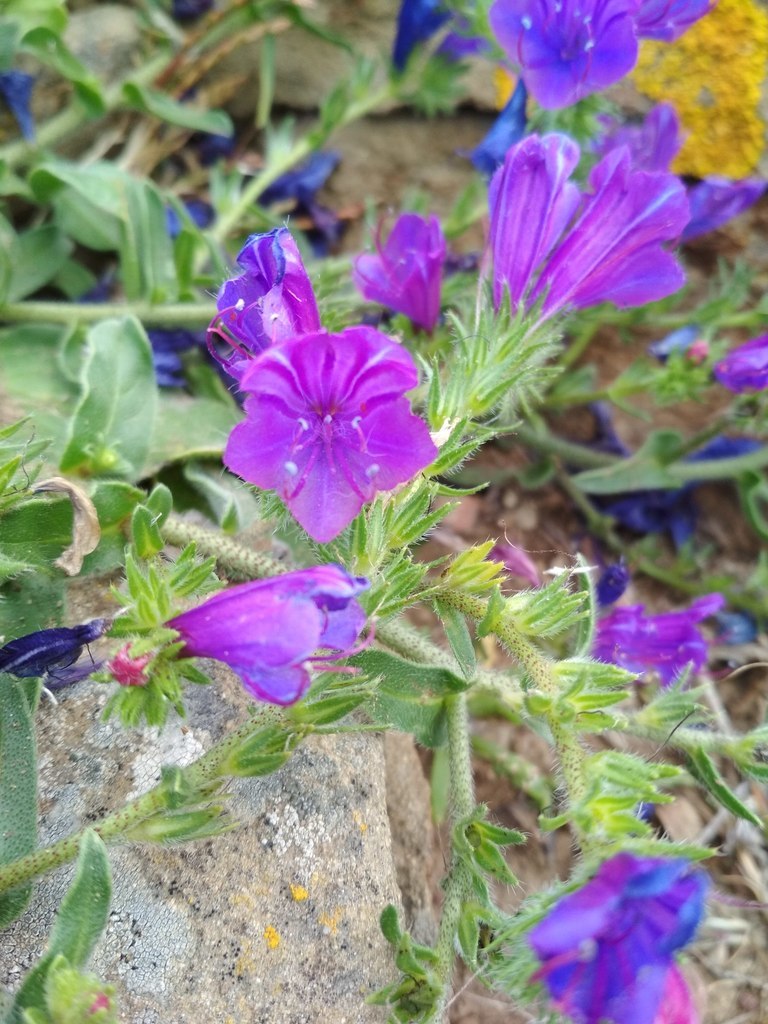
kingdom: Plantae
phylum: Tracheophyta
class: Magnoliopsida
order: Boraginales
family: Boraginaceae
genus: Echium
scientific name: Echium plantagineum
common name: Purple viper's-bugloss
